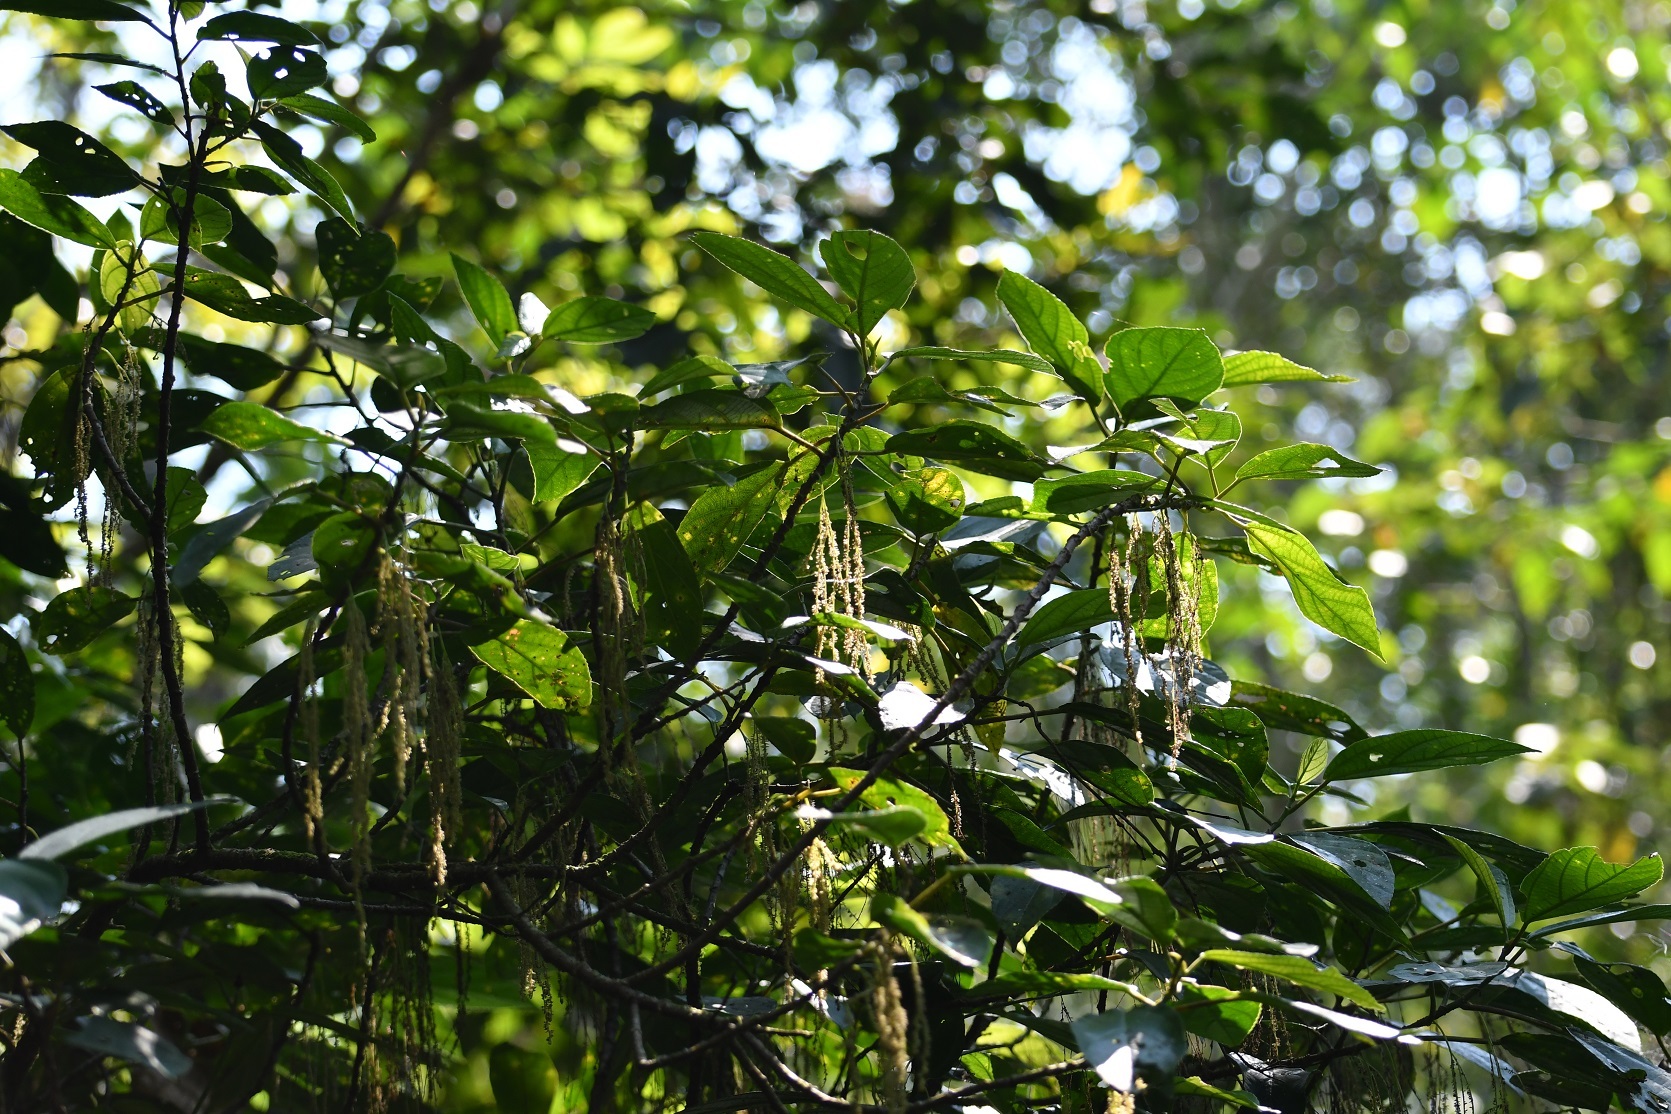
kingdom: Plantae
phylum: Tracheophyta
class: Magnoliopsida
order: Rosales
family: Urticaceae
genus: Myriocarpa
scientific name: Myriocarpa cordifolia
